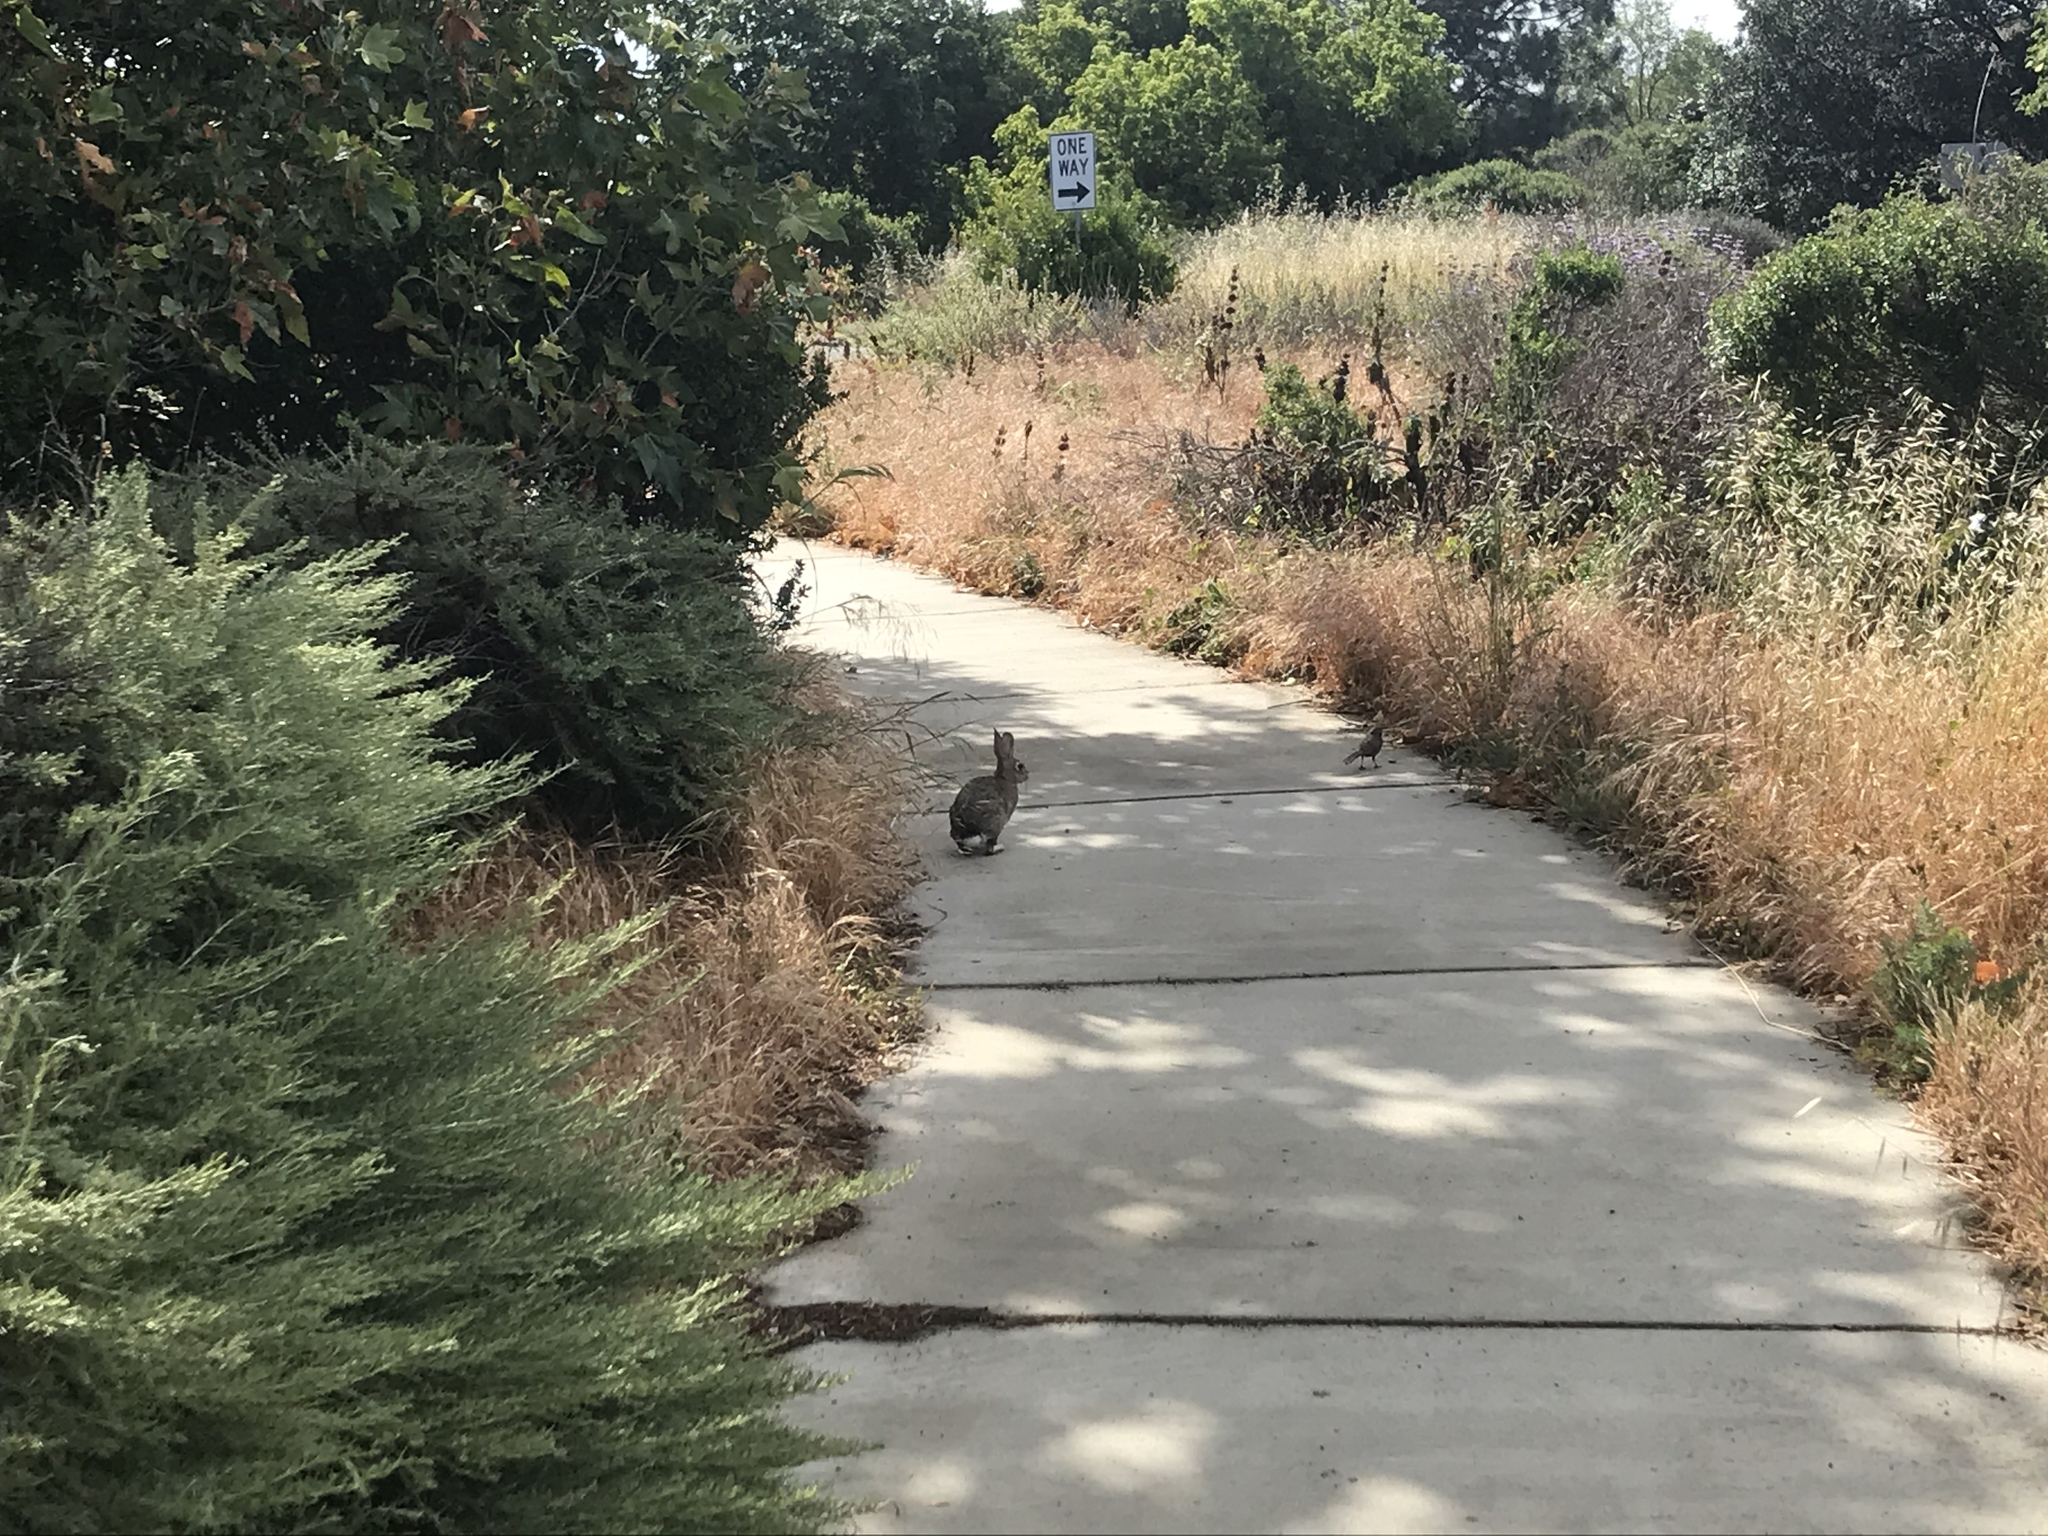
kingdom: Animalia
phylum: Chordata
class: Mammalia
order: Lagomorpha
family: Leporidae
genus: Sylvilagus
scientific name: Sylvilagus audubonii
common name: Desert cottontail
